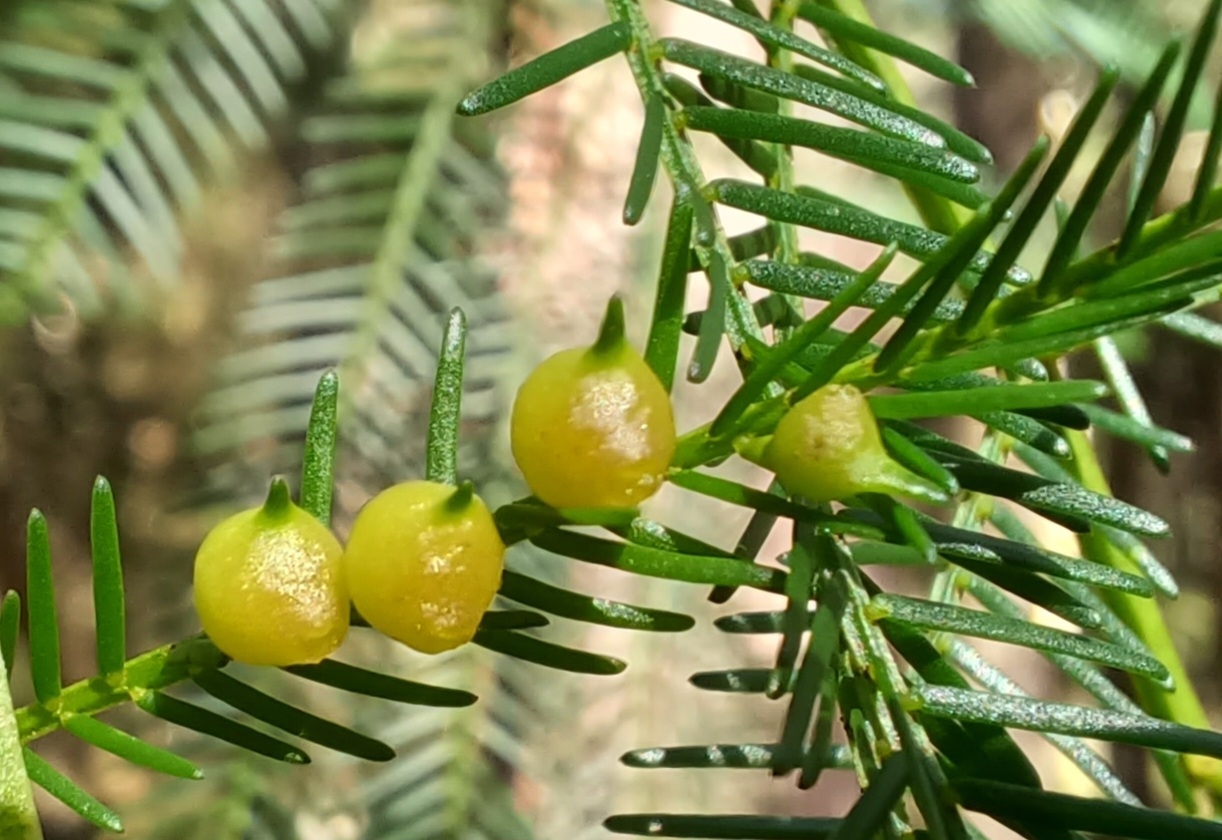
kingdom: Animalia
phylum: Arthropoda
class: Insecta
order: Diptera
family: Cecidomyiidae
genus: Austroacacidiplosis
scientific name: Austroacacidiplosis botrycephalae
